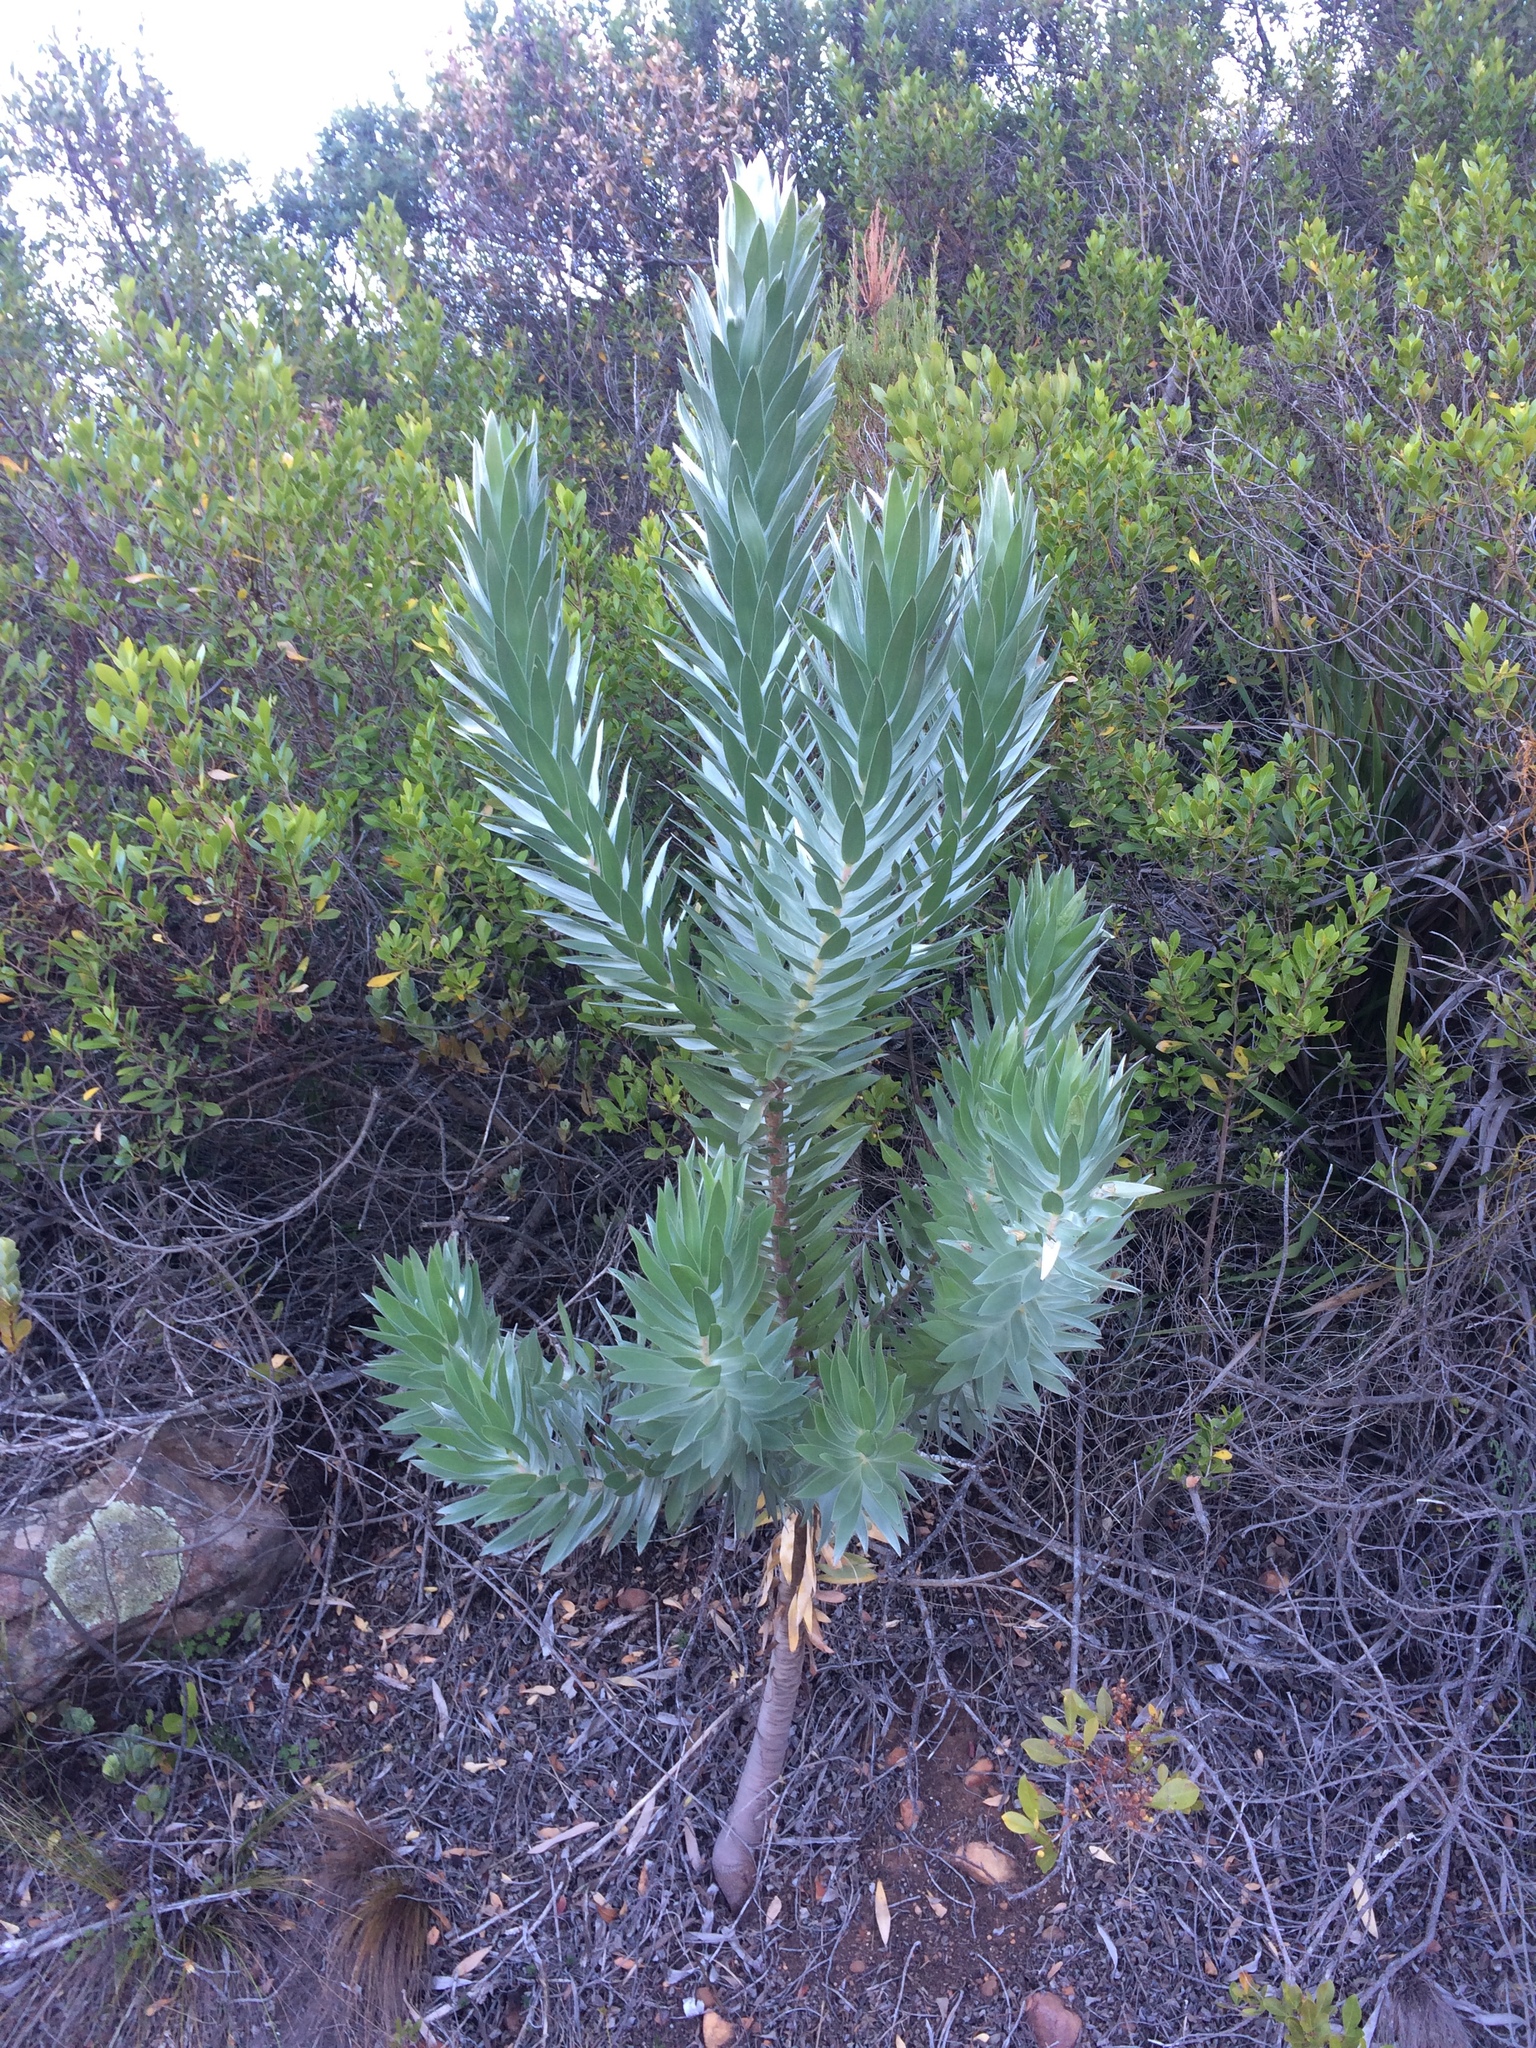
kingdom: Plantae
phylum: Tracheophyta
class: Magnoliopsida
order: Proteales
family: Proteaceae
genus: Leucadendron
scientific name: Leucadendron argenteum
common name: Cape silver tree
